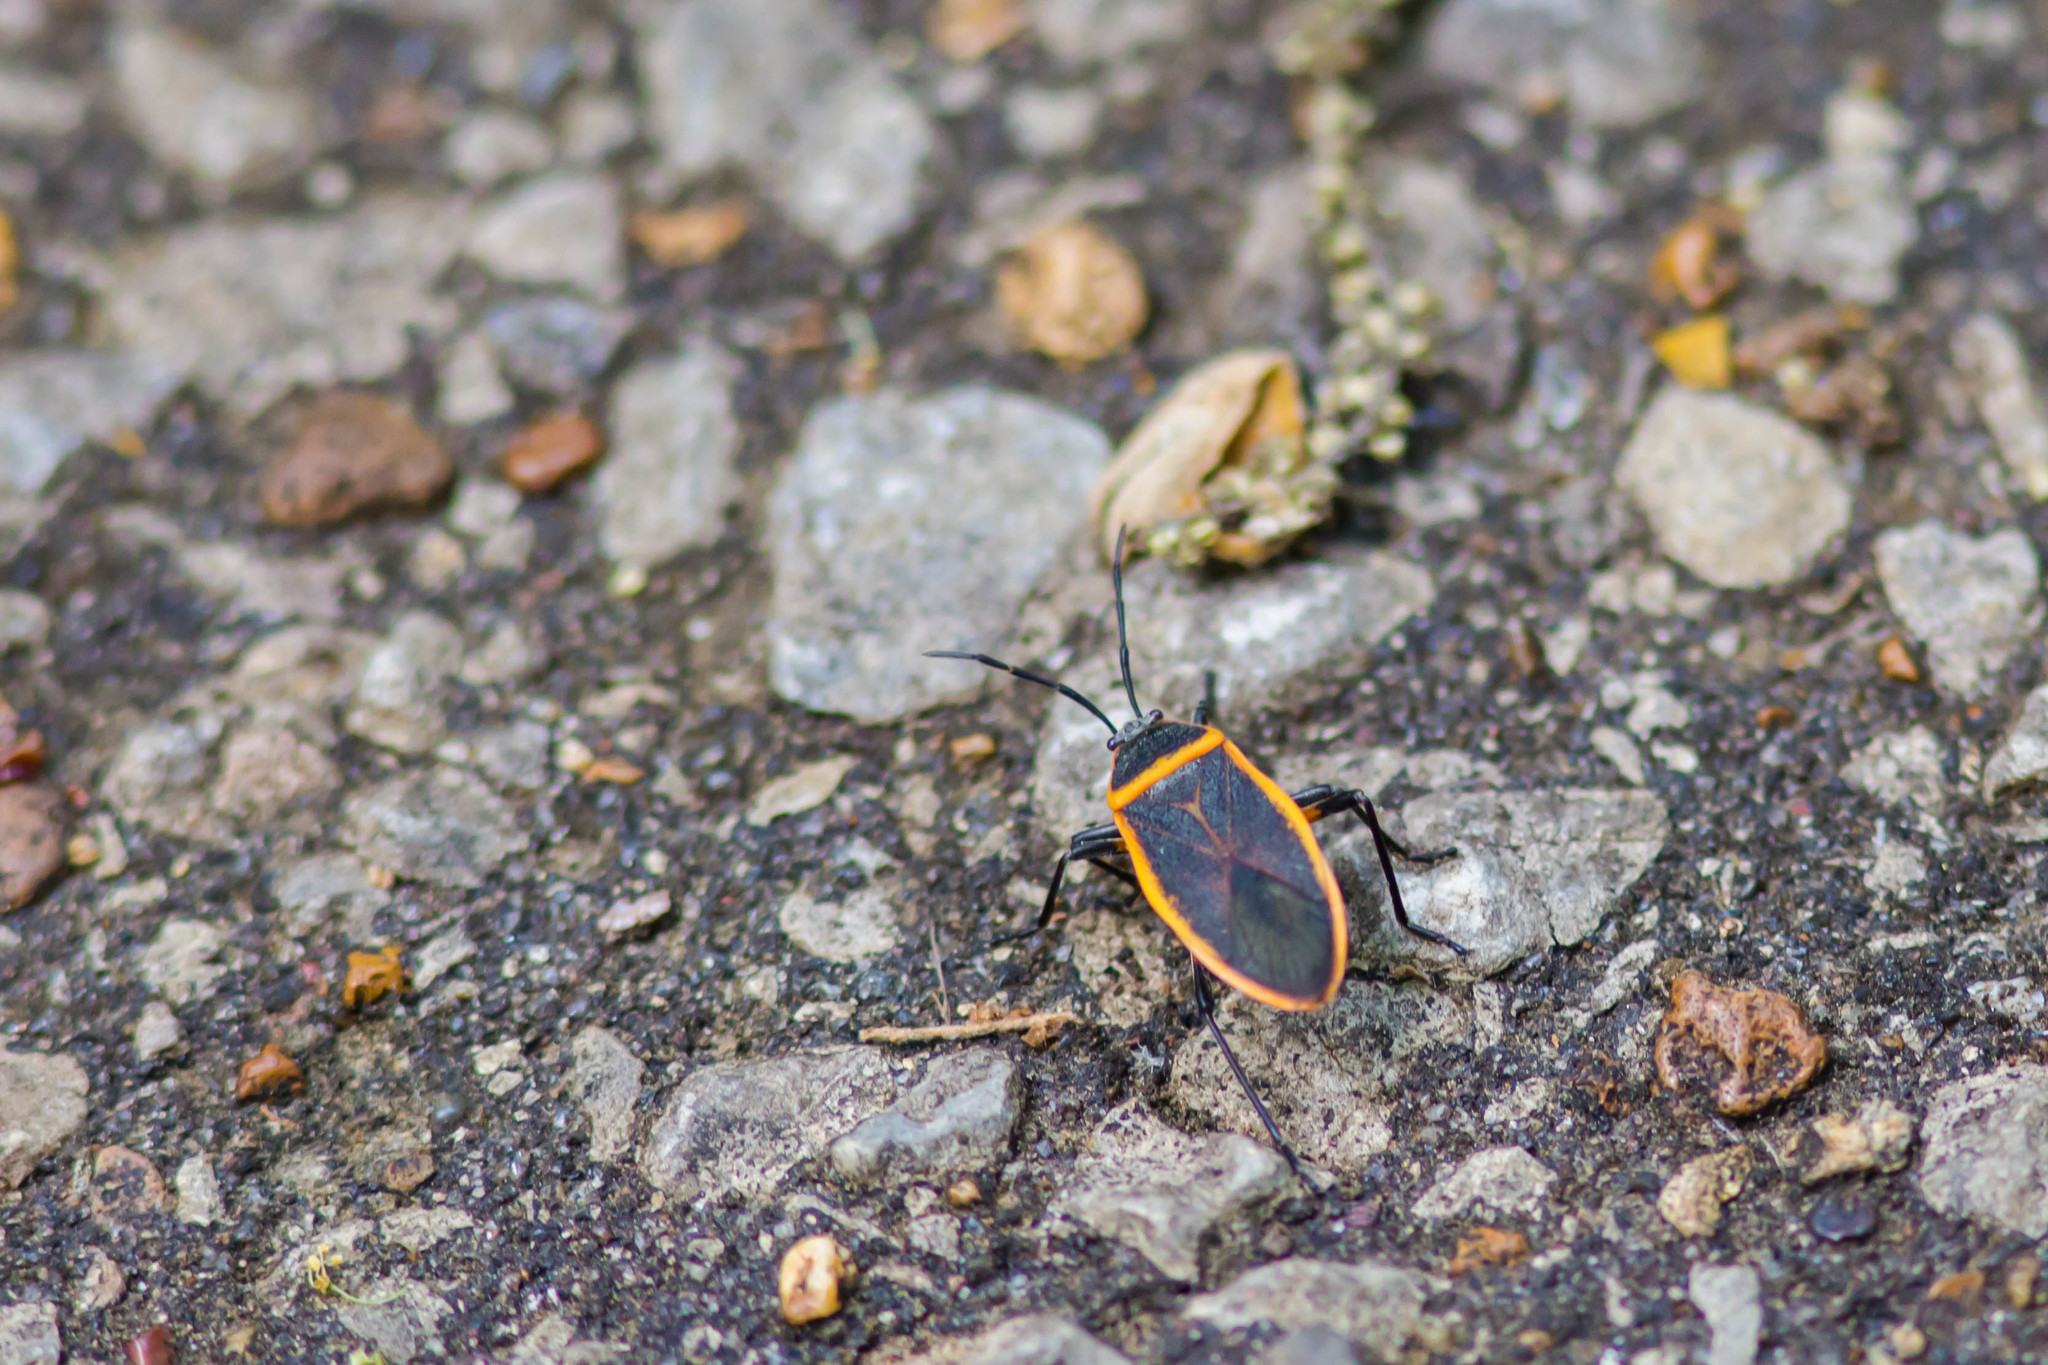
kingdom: Animalia
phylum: Arthropoda
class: Insecta
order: Hemiptera
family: Largidae
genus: Largus
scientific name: Largus succinctus
